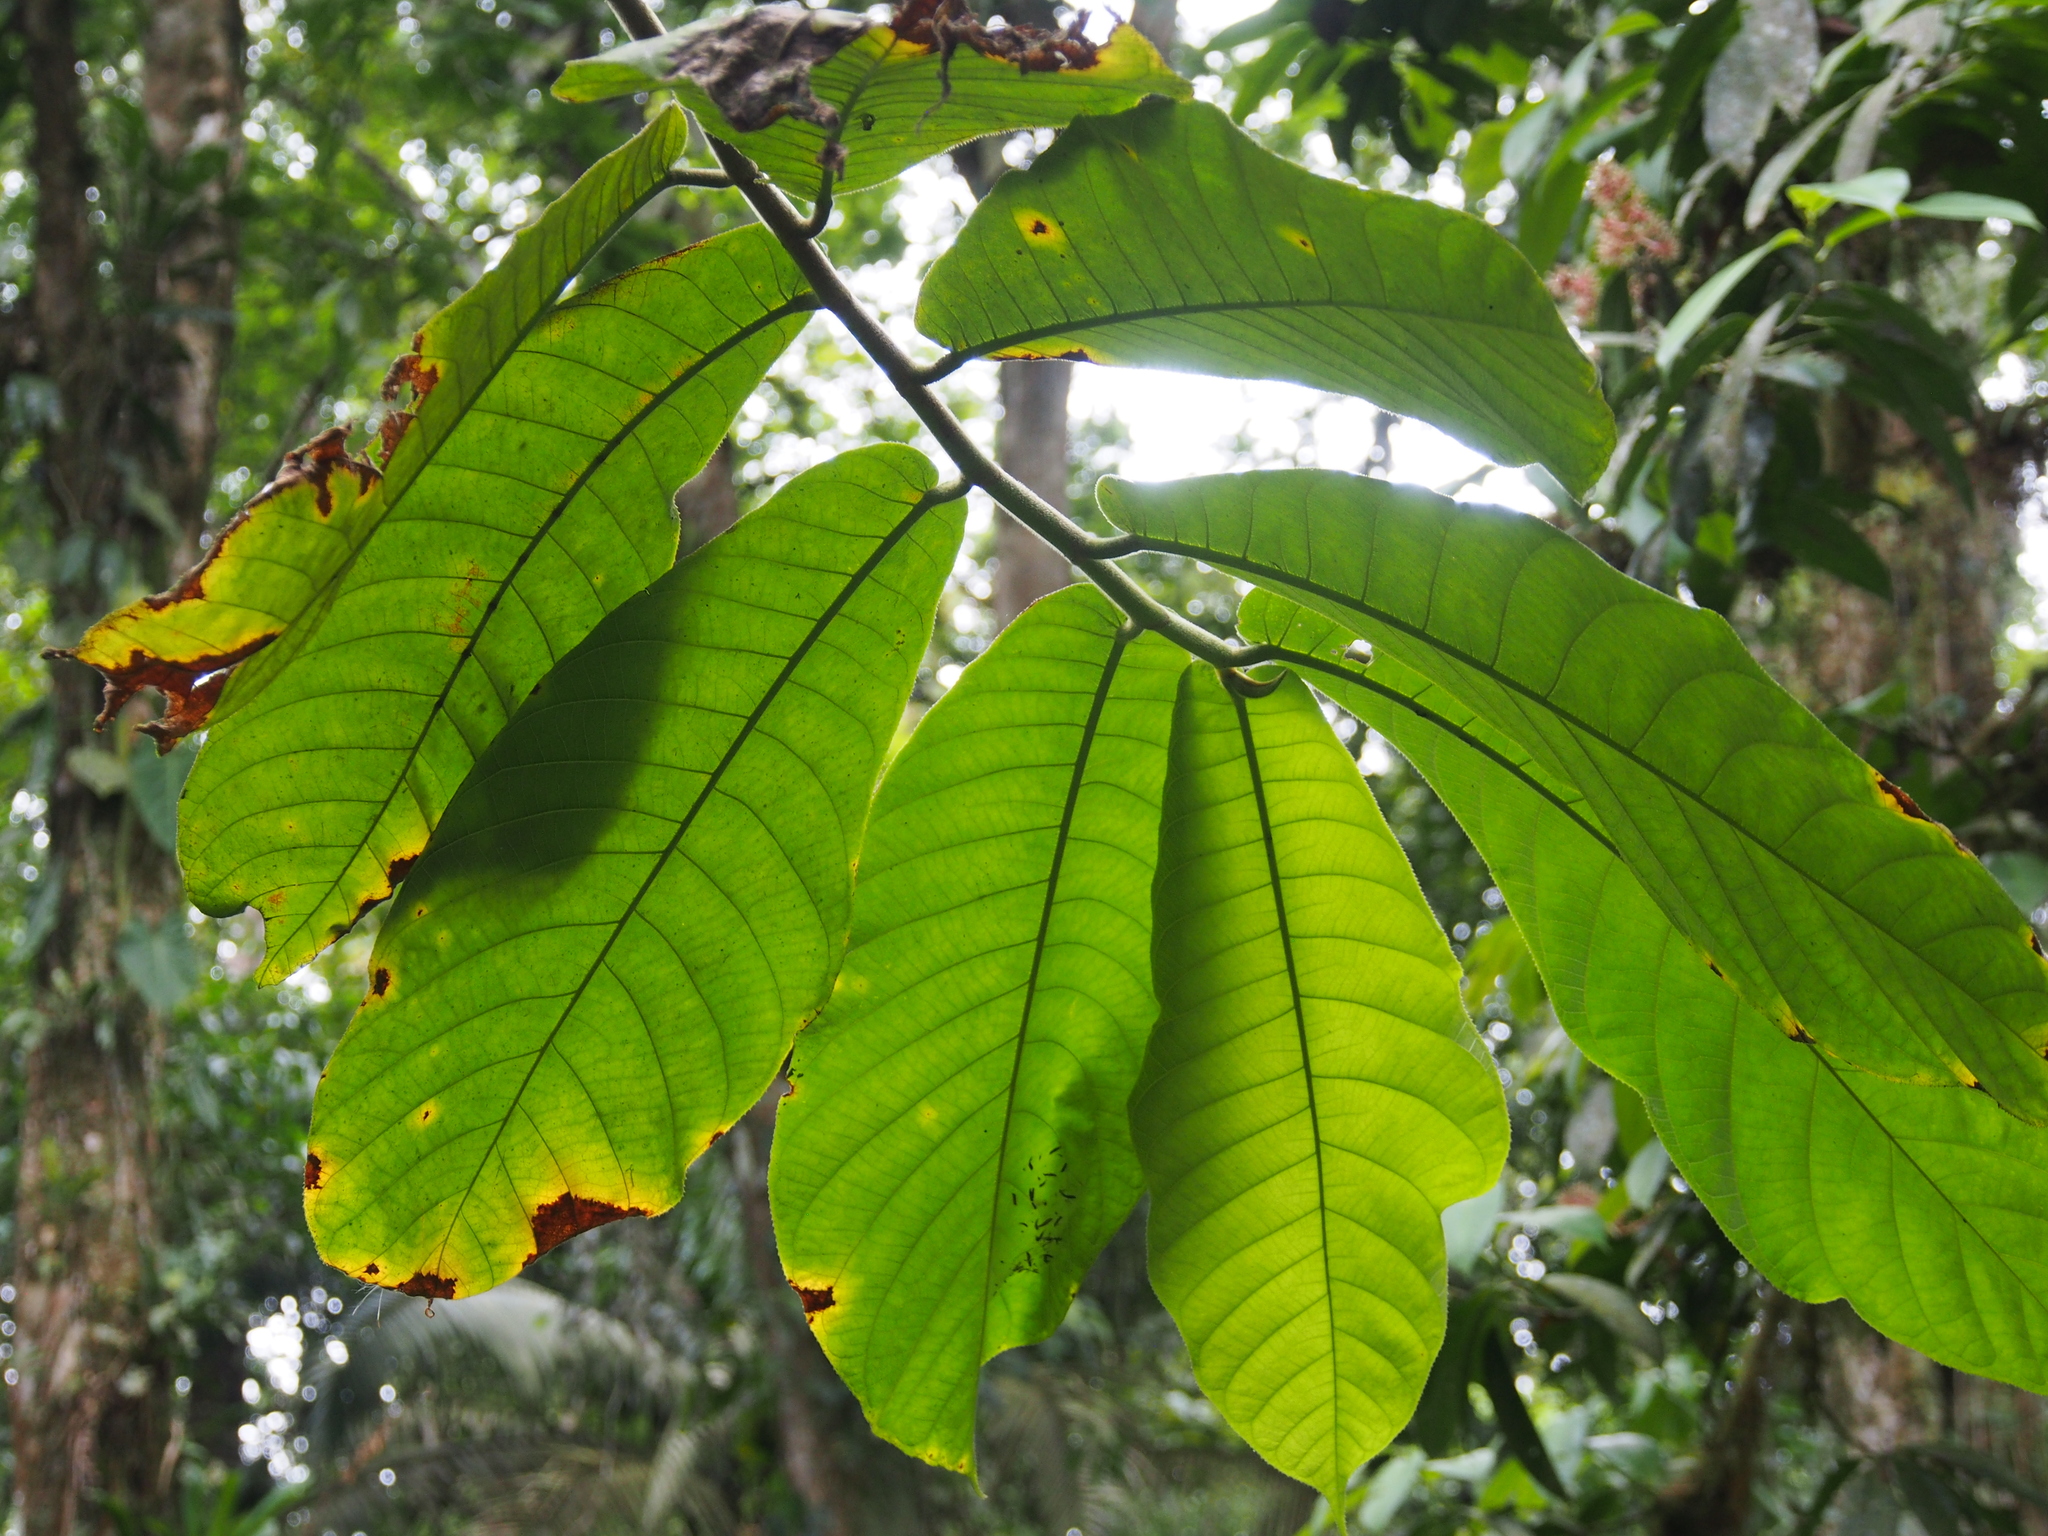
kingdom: Plantae
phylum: Tracheophyta
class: Magnoliopsida
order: Rosales
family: Moraceae
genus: Castilla
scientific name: Castilla elastica
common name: Castilla rubber
